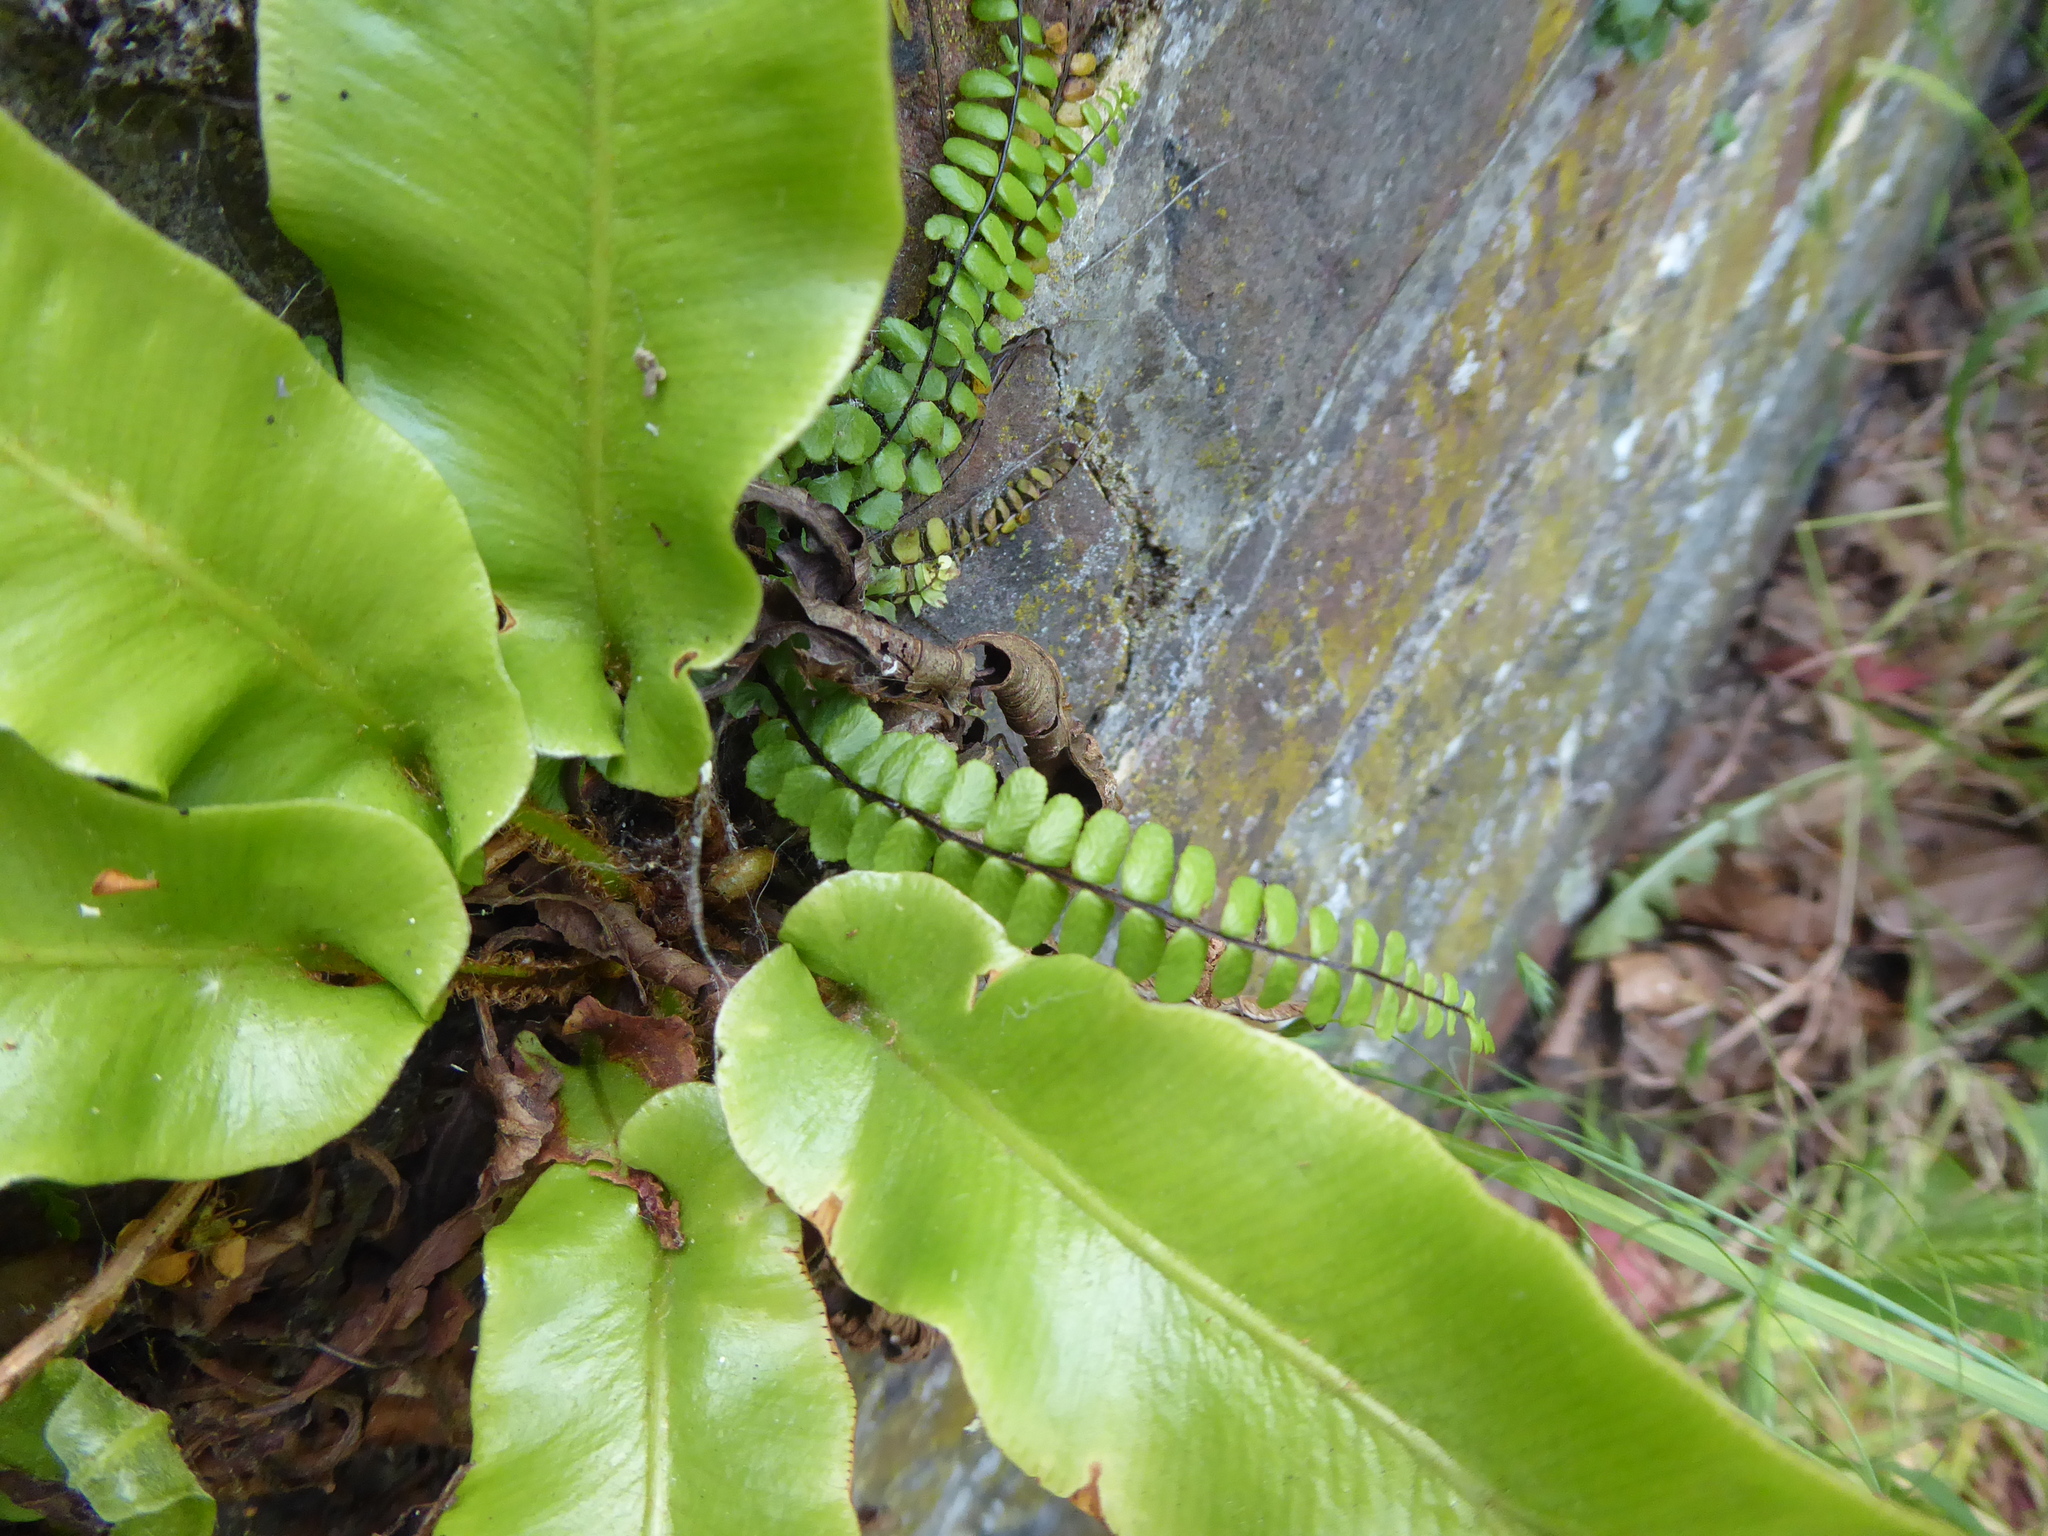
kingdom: Plantae
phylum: Tracheophyta
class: Polypodiopsida
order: Polypodiales
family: Aspleniaceae
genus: Asplenium
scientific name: Asplenium scolopendrium
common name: Hart's-tongue fern
